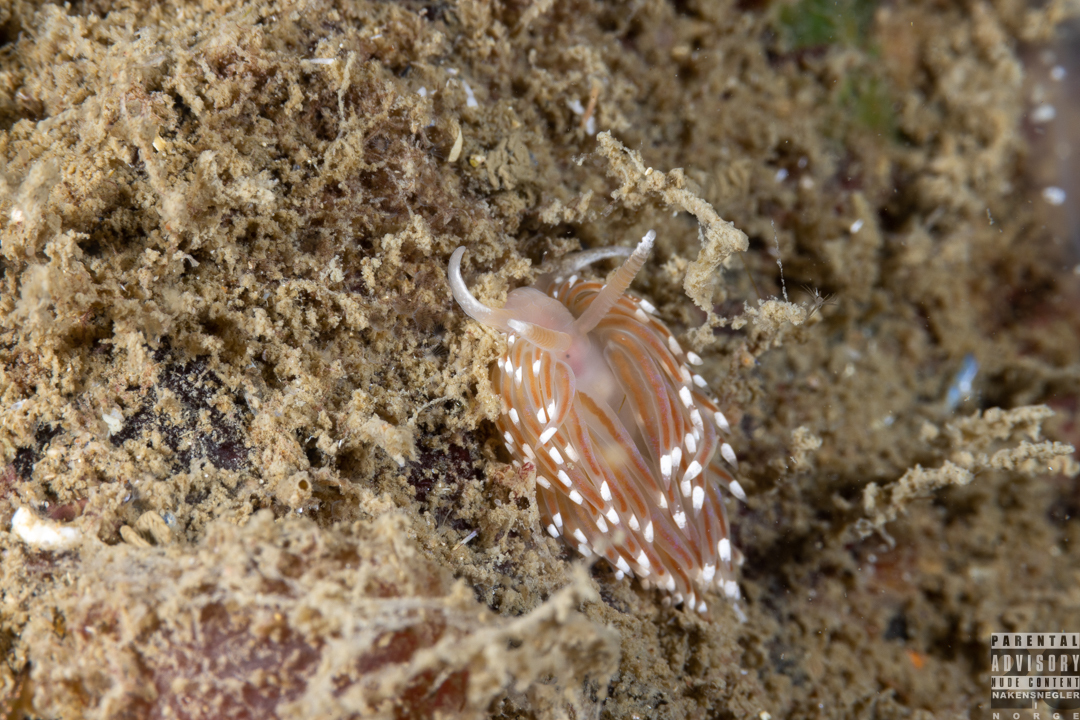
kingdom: Animalia
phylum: Mollusca
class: Gastropoda
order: Nudibranchia
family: Facelinidae
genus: Facelina
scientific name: Facelina bostoniensis
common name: Boston facelina
